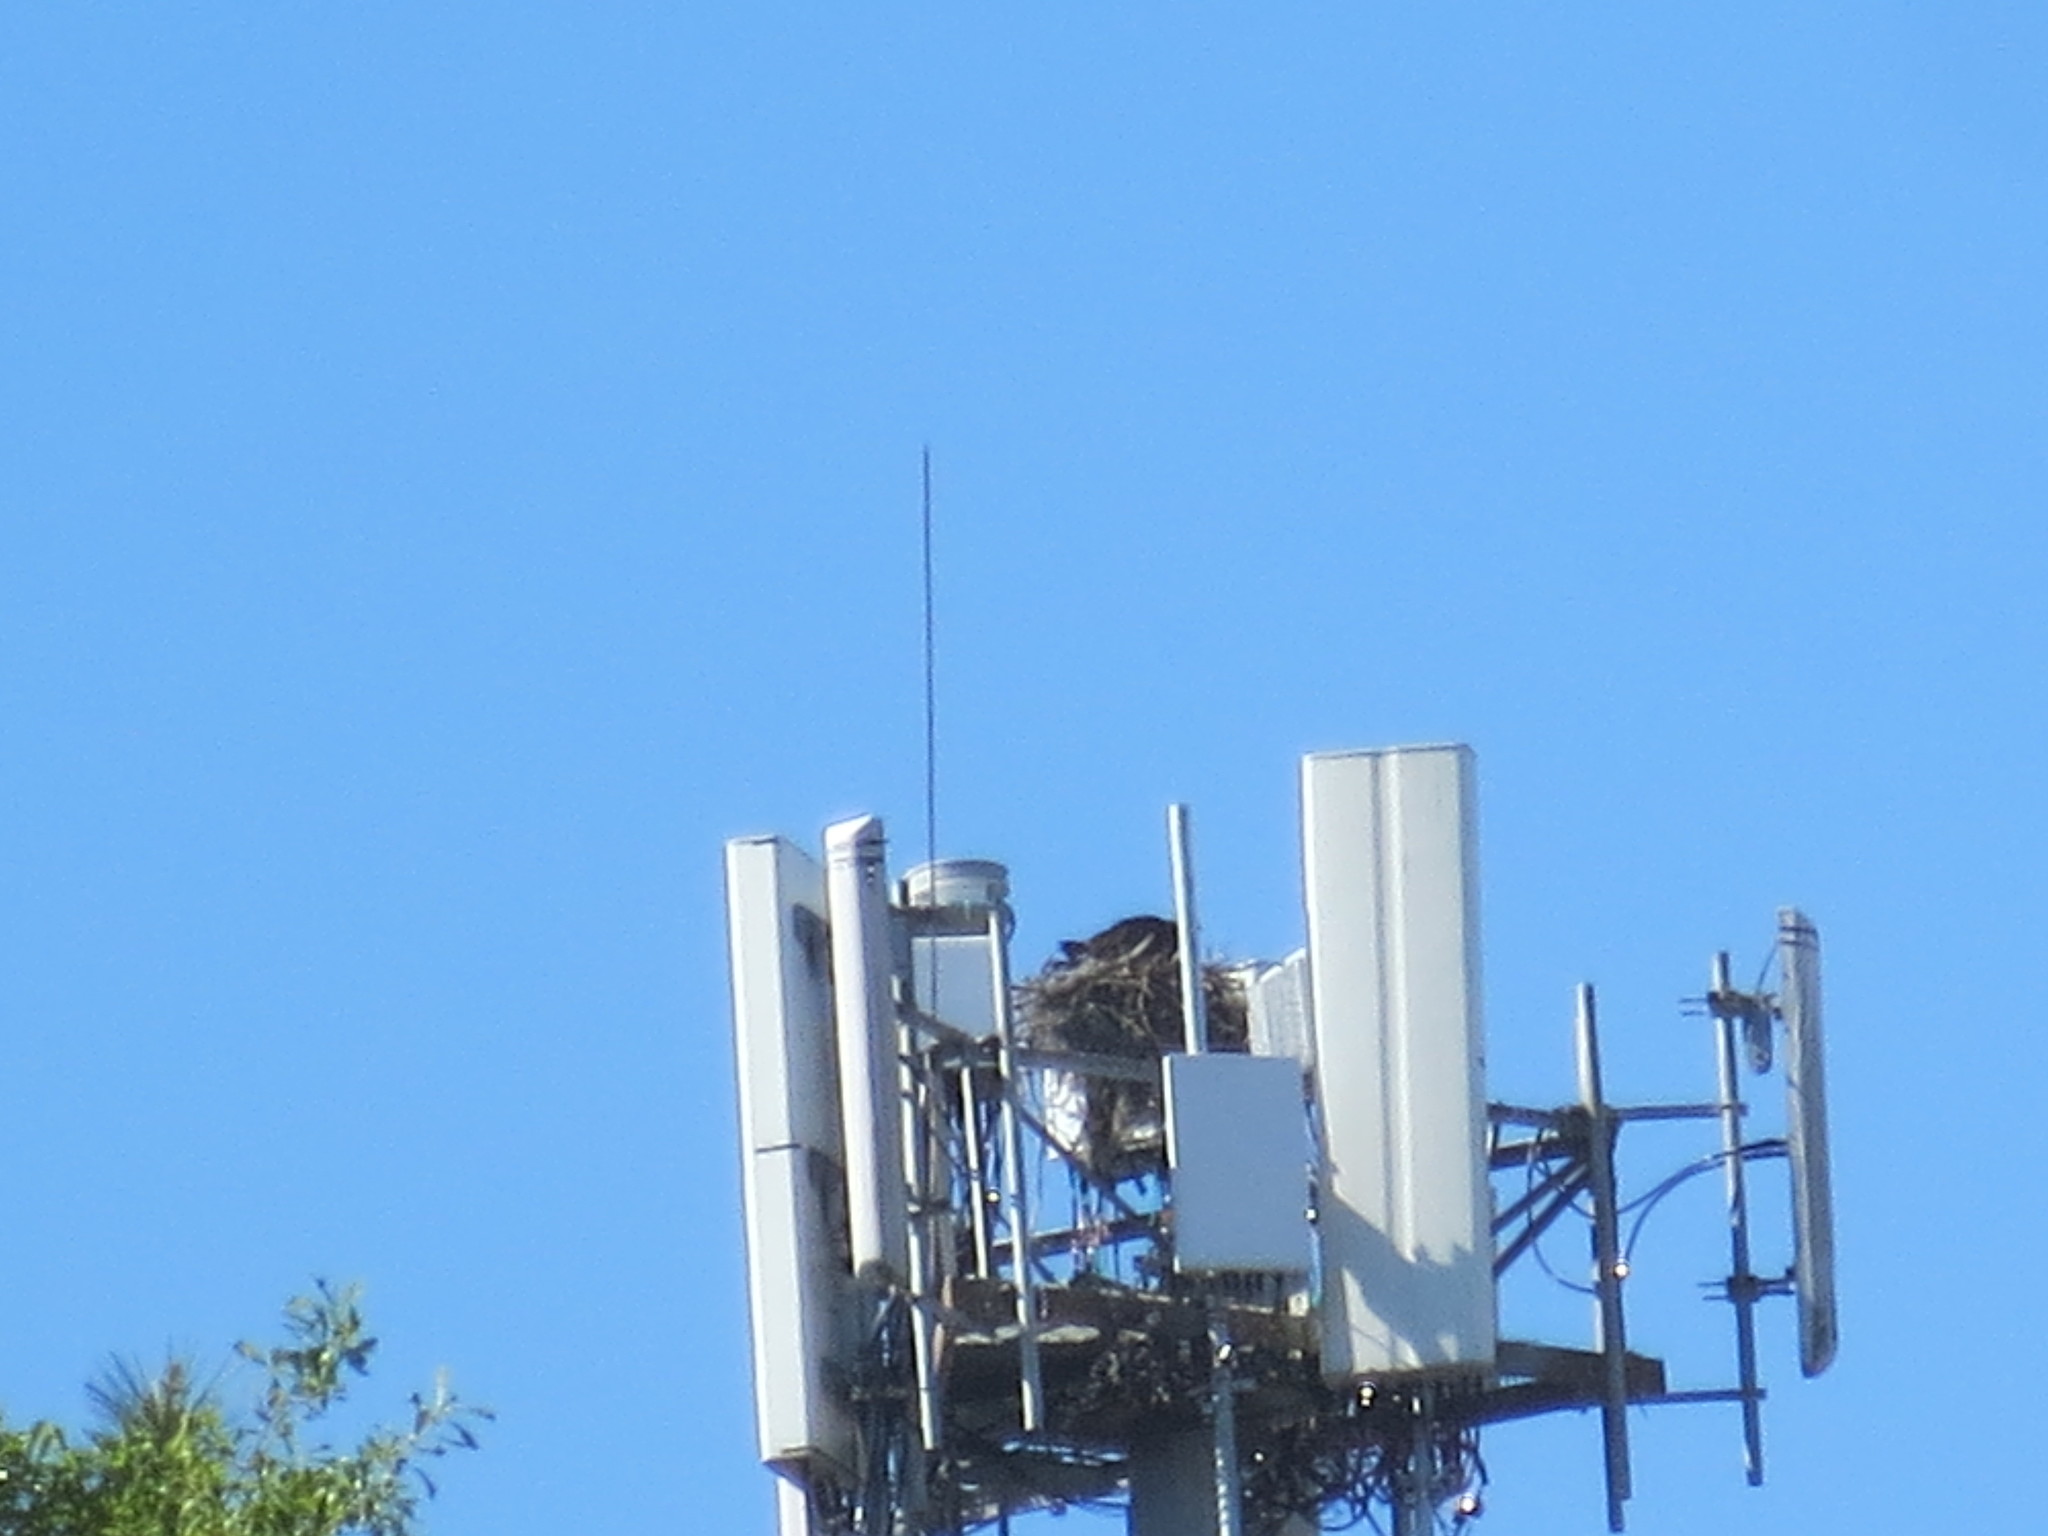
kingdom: Animalia
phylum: Chordata
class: Aves
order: Accipitriformes
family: Pandionidae
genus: Pandion
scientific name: Pandion haliaetus
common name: Osprey
